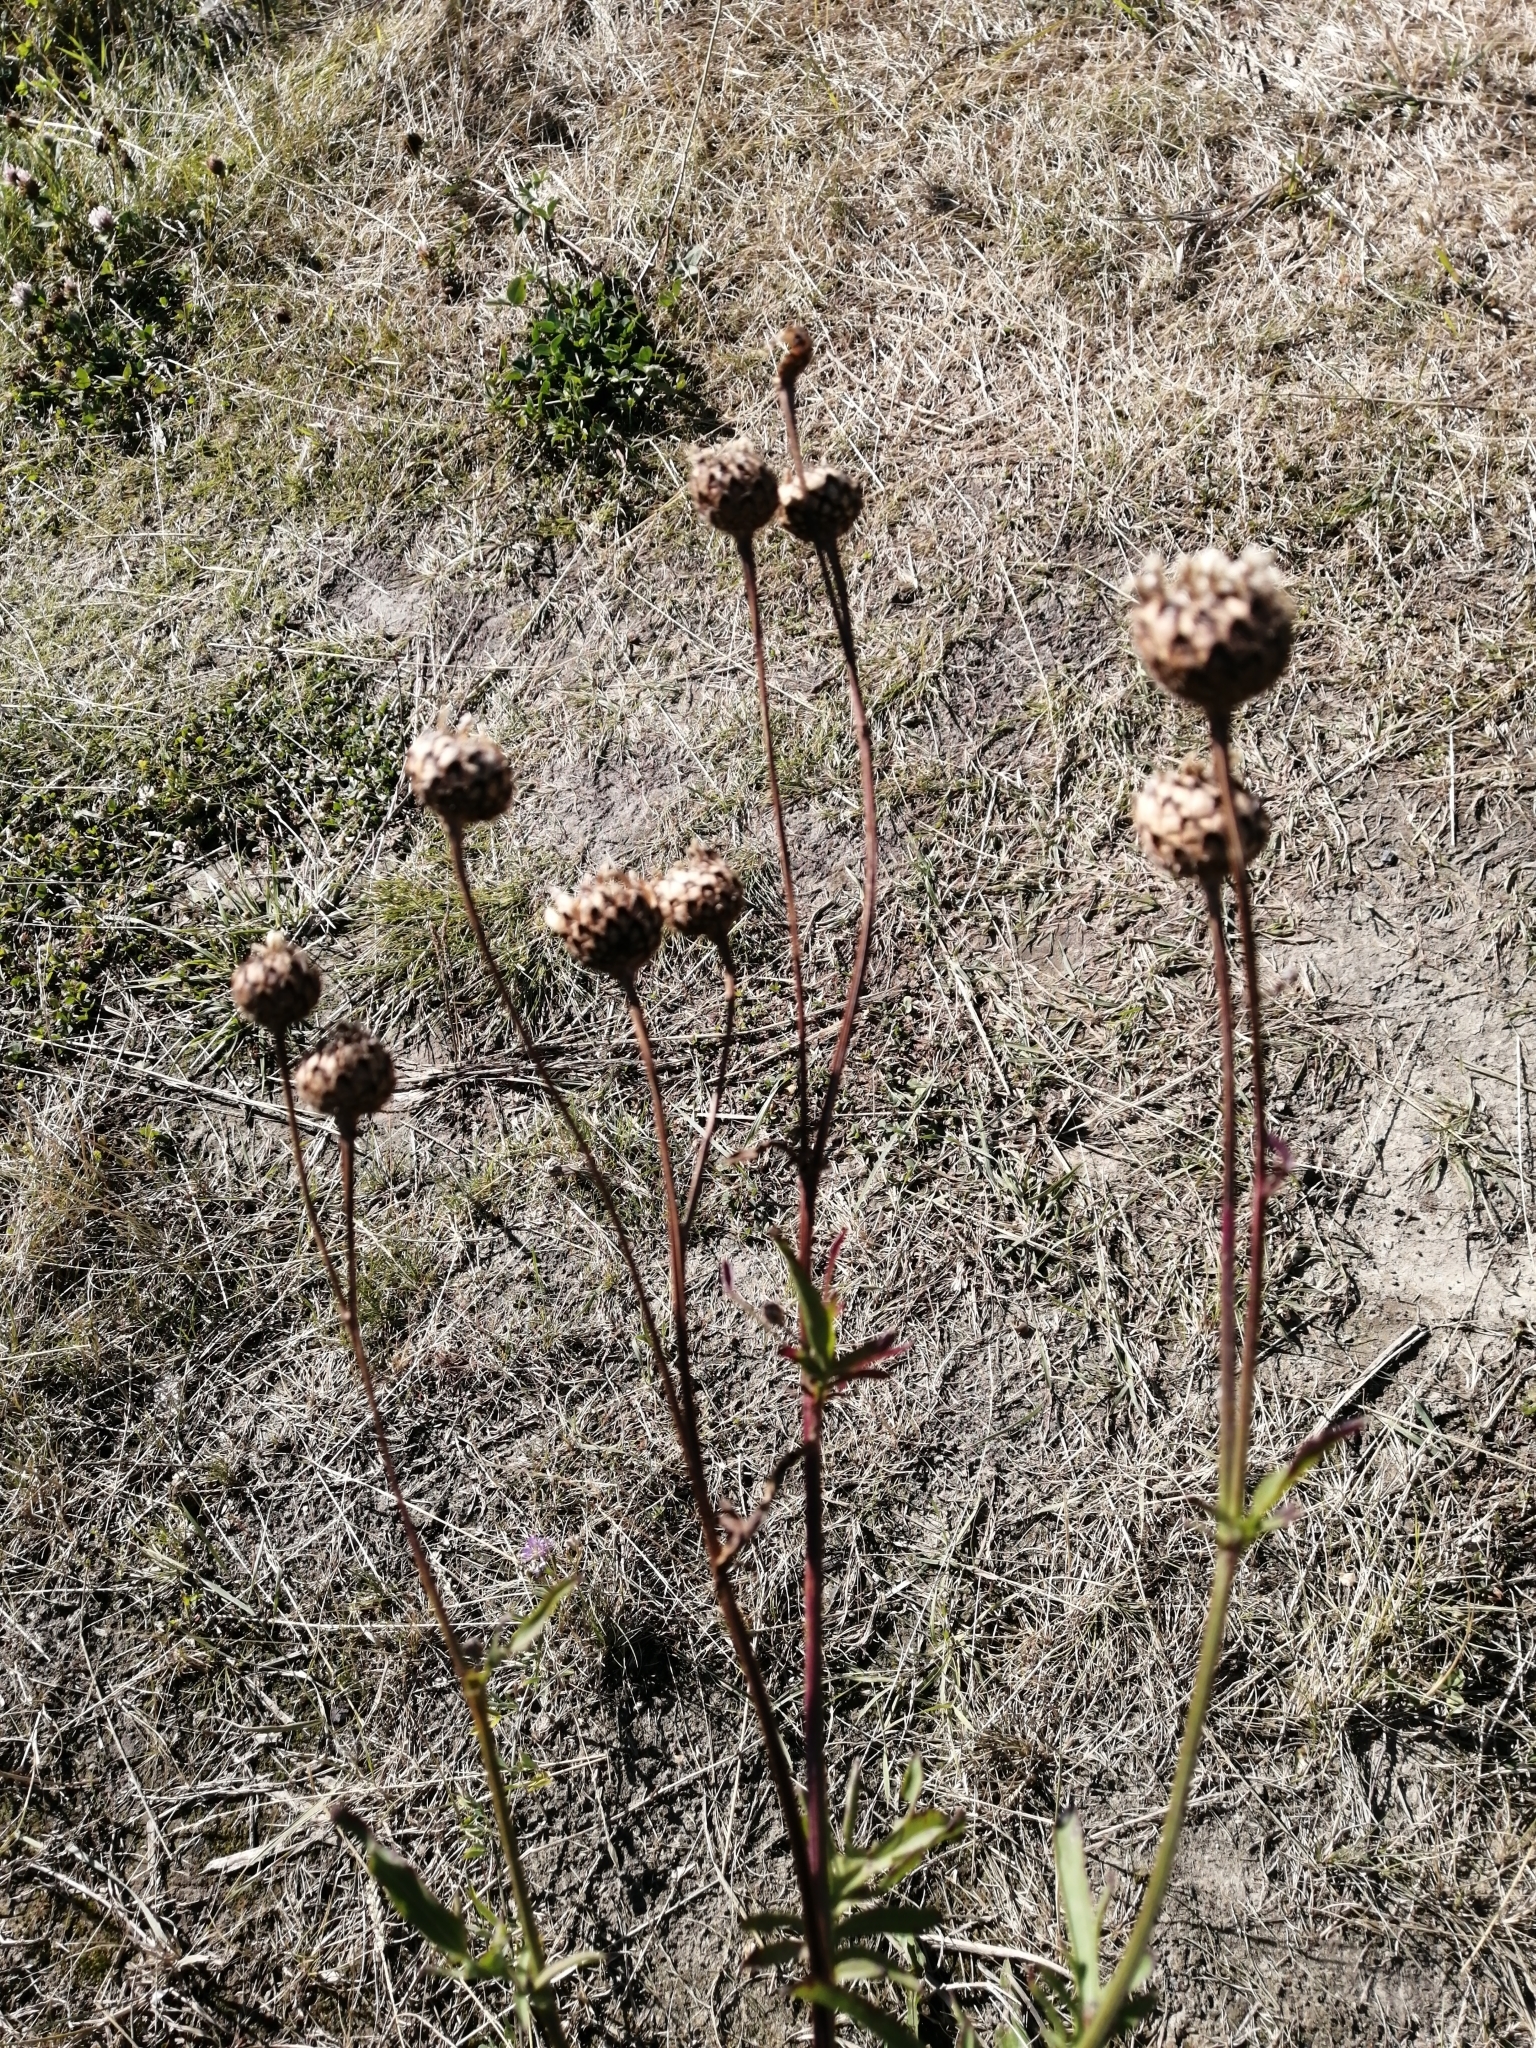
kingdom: Plantae
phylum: Tracheophyta
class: Magnoliopsida
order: Asterales
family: Asteraceae
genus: Centaurea
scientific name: Centaurea scabiosa
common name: Greater knapweed
